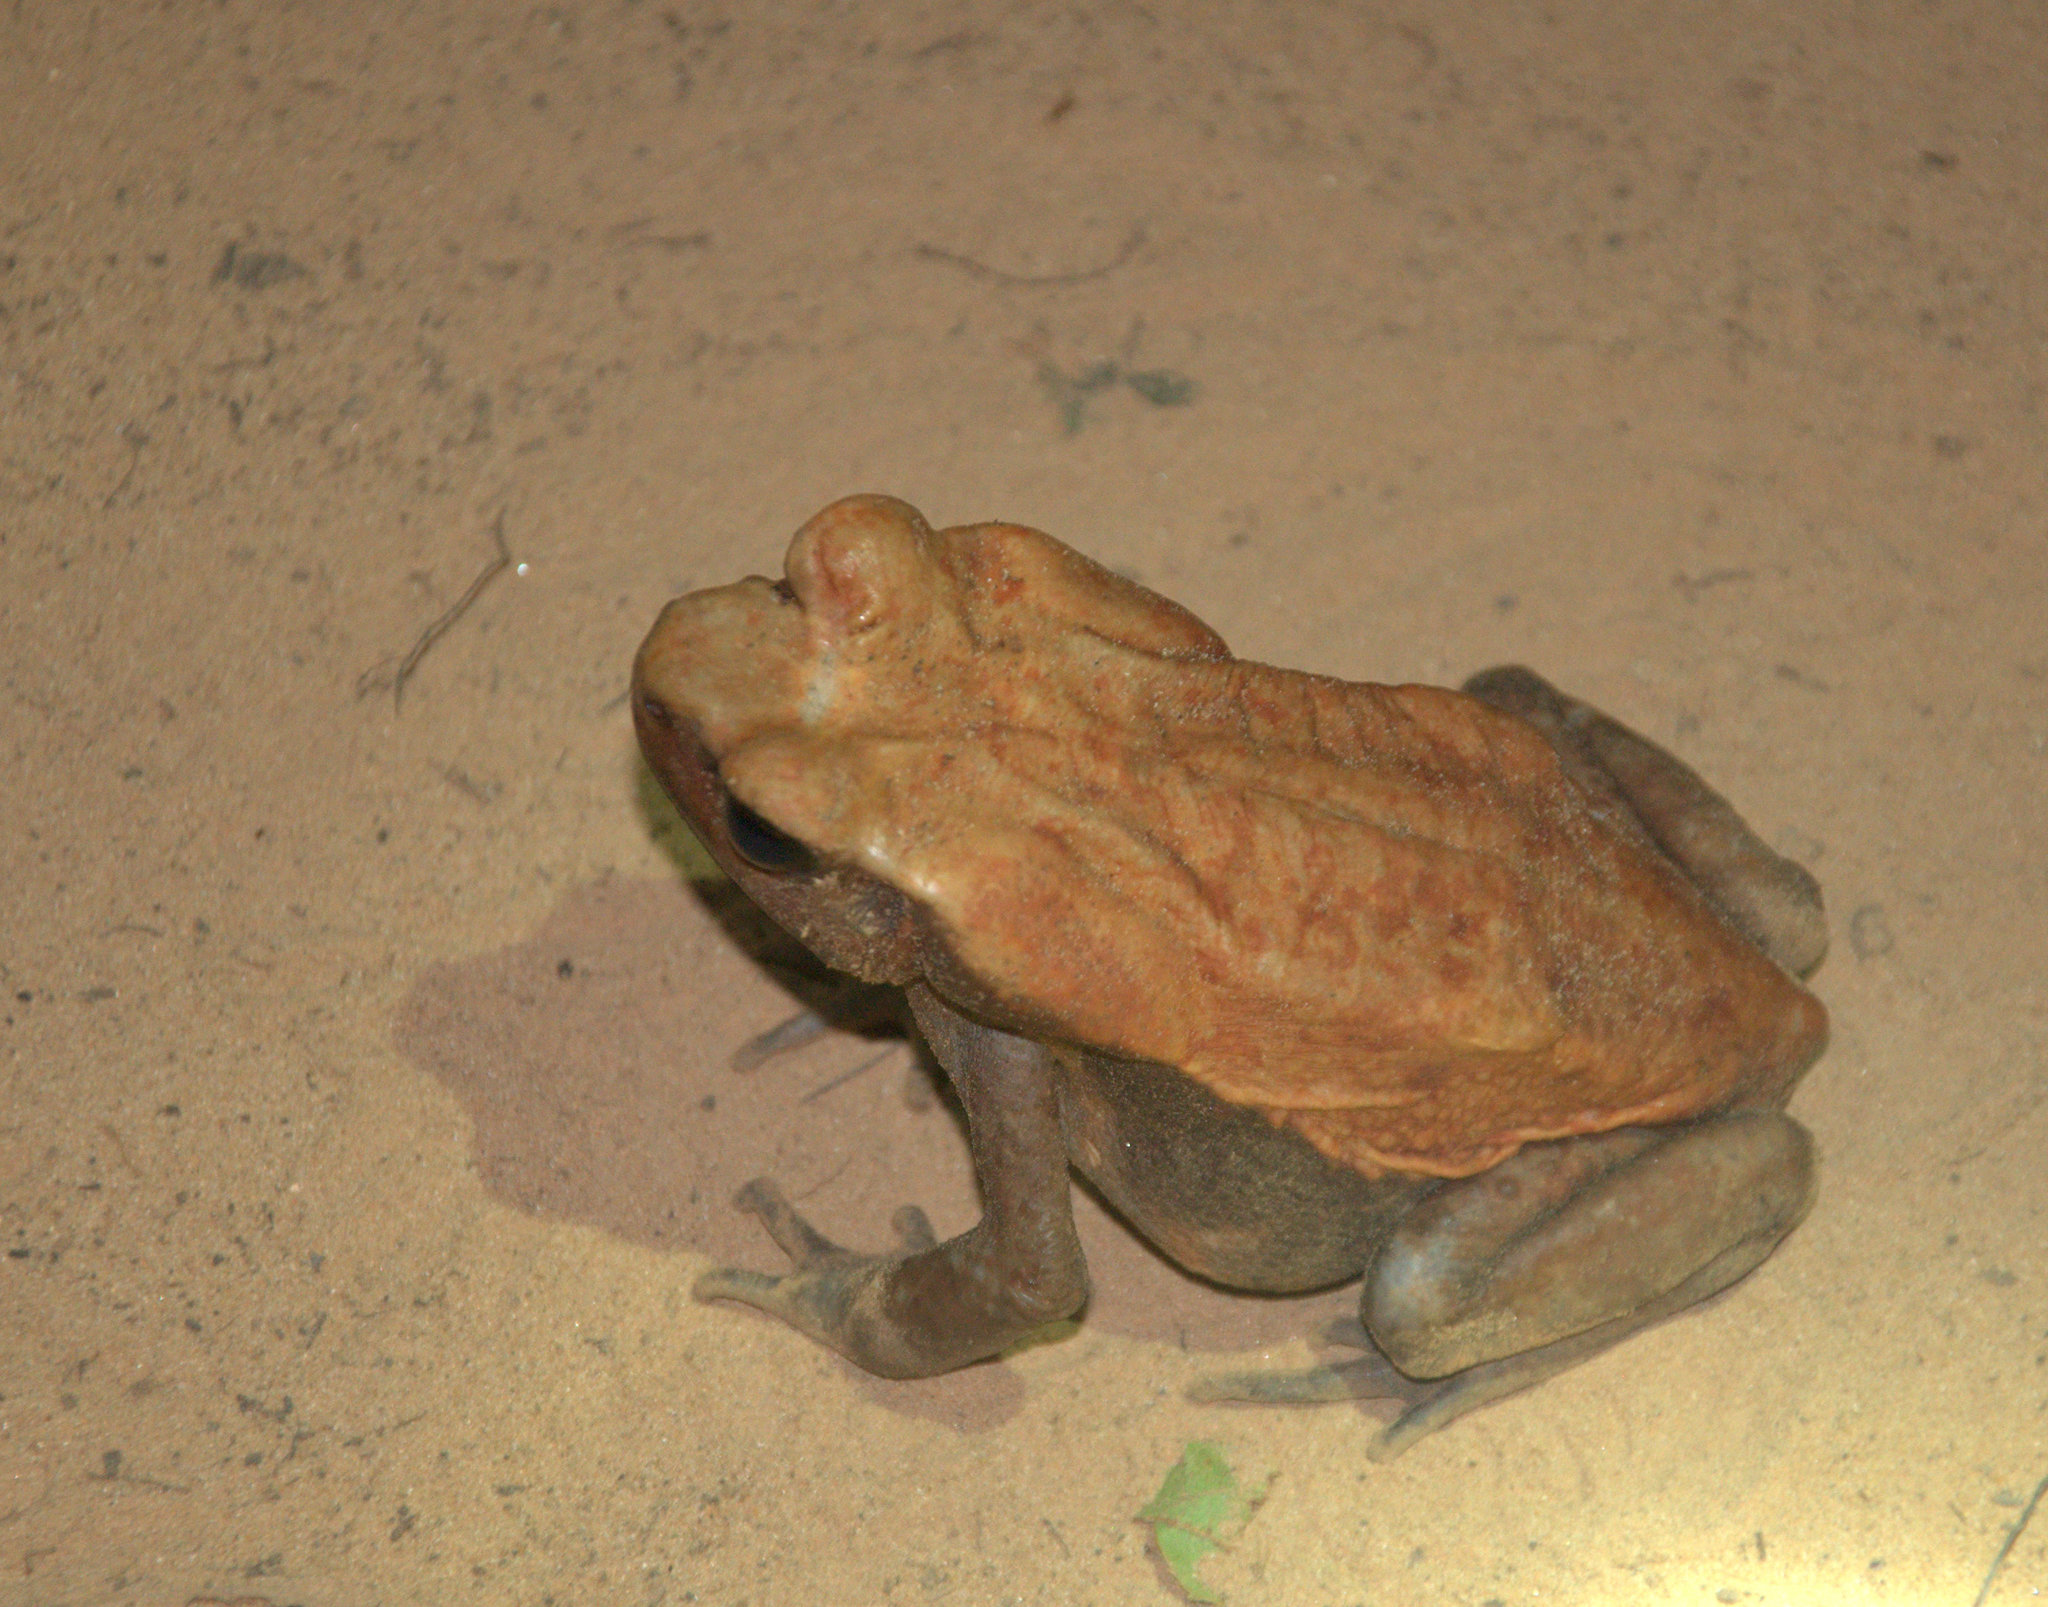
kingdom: Animalia
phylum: Chordata
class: Amphibia
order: Anura
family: Bufonidae
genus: Rhaebo
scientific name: Rhaebo guttatus
